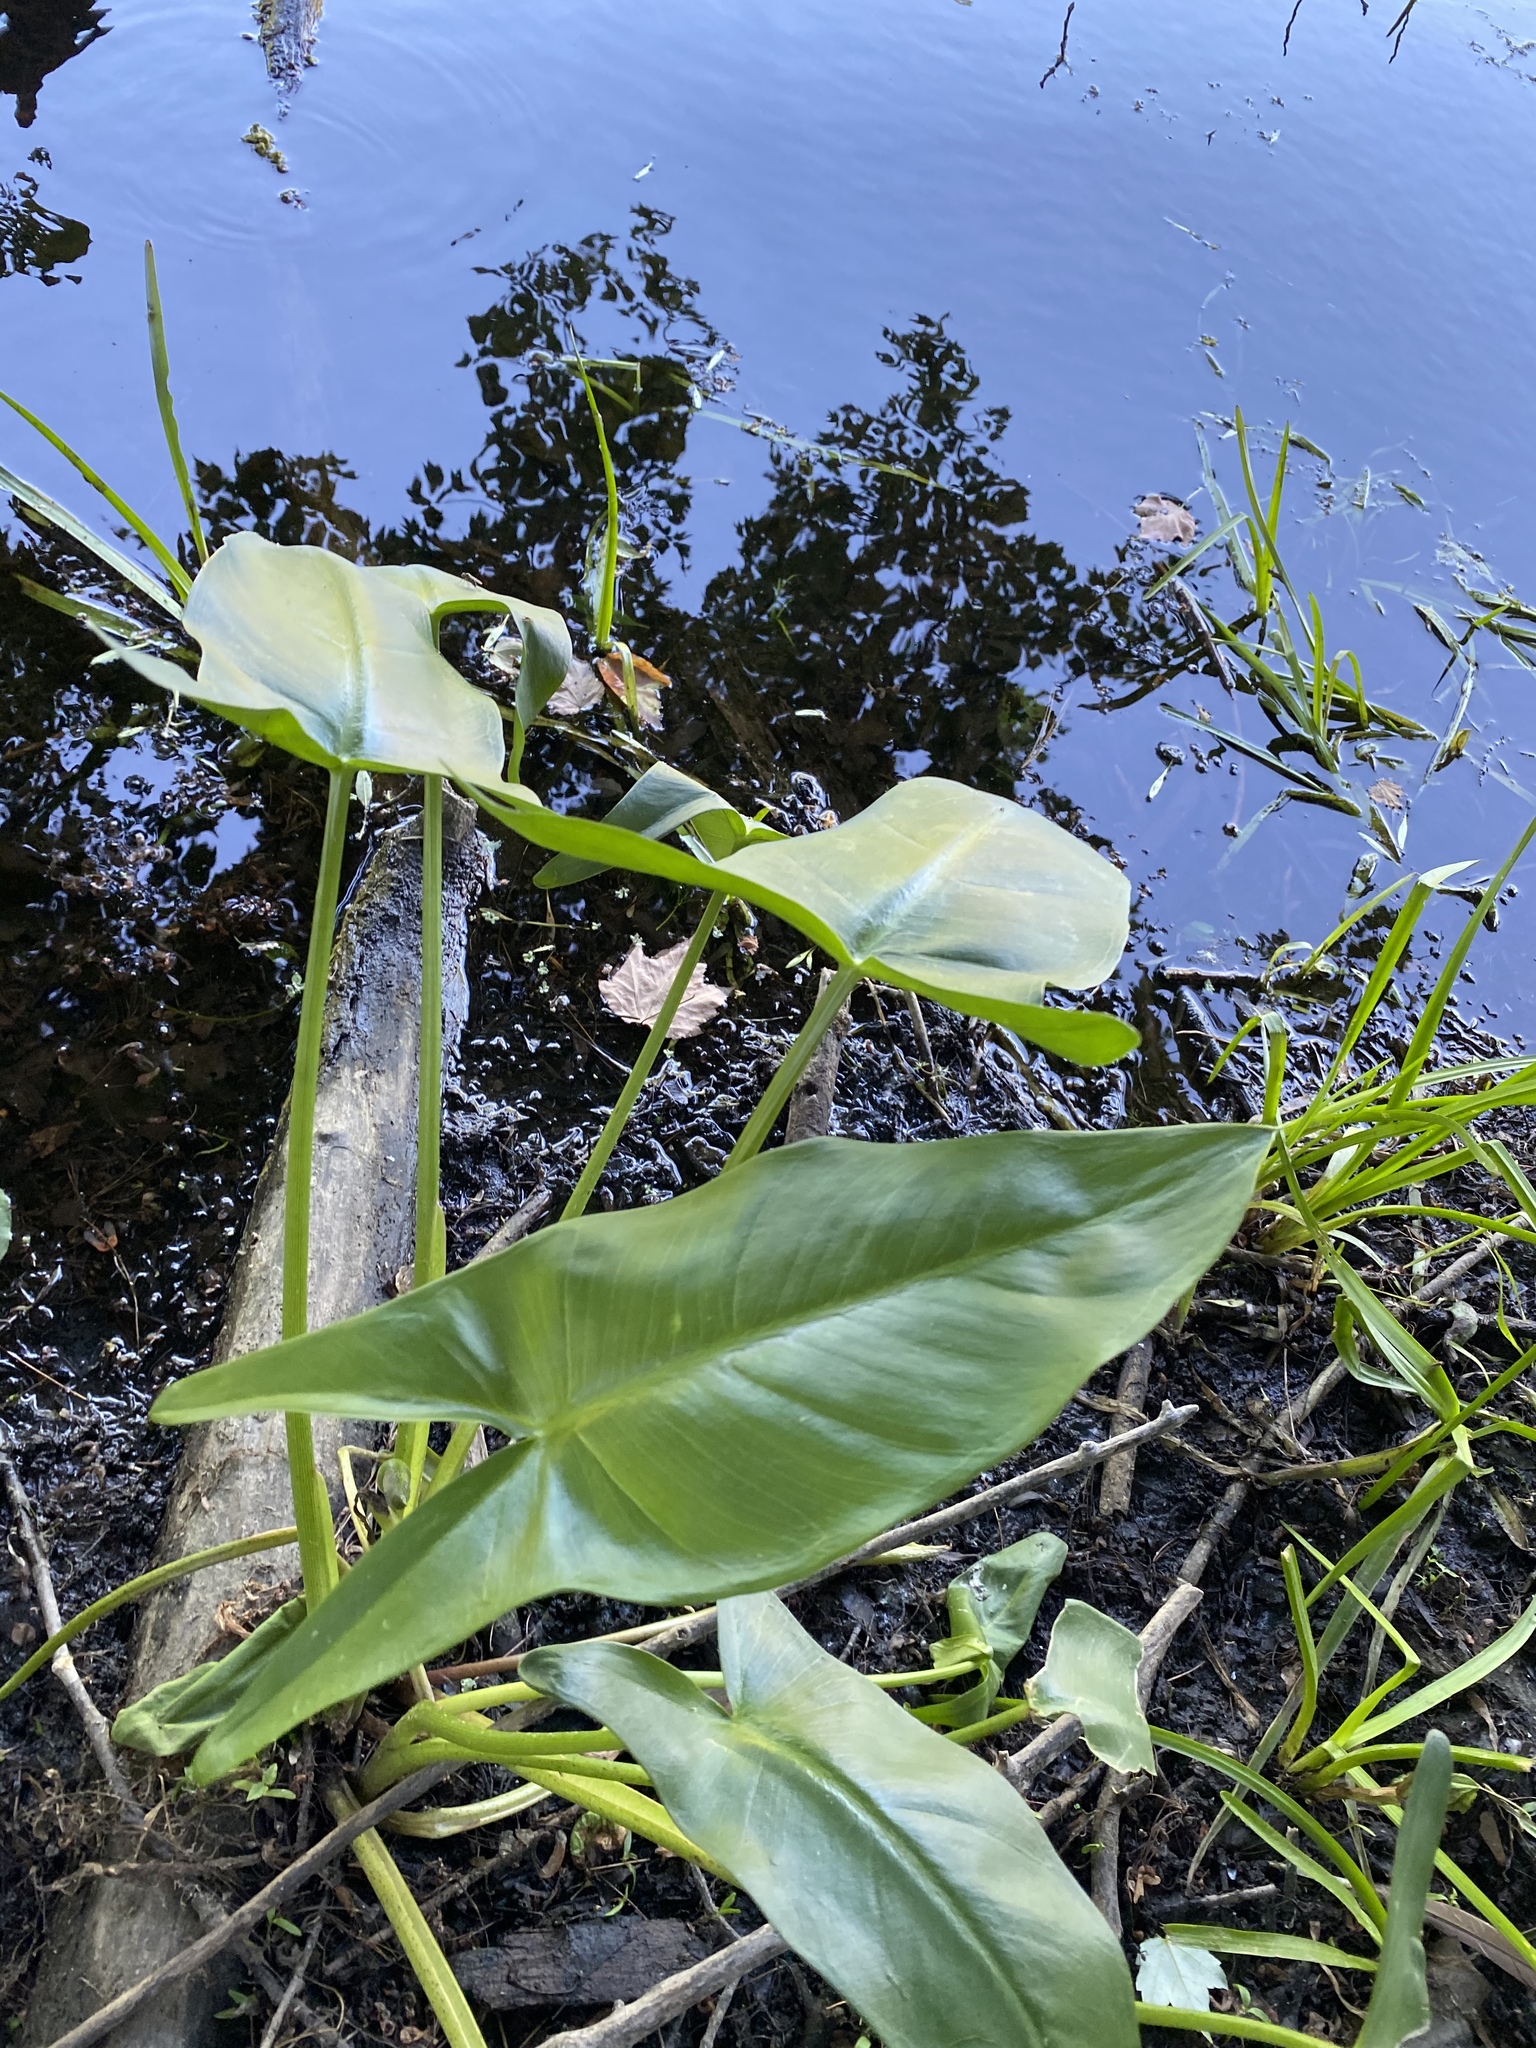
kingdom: Plantae
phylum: Tracheophyta
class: Liliopsida
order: Alismatales
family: Araceae
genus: Peltandra
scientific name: Peltandra virginica
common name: Arrow arum
